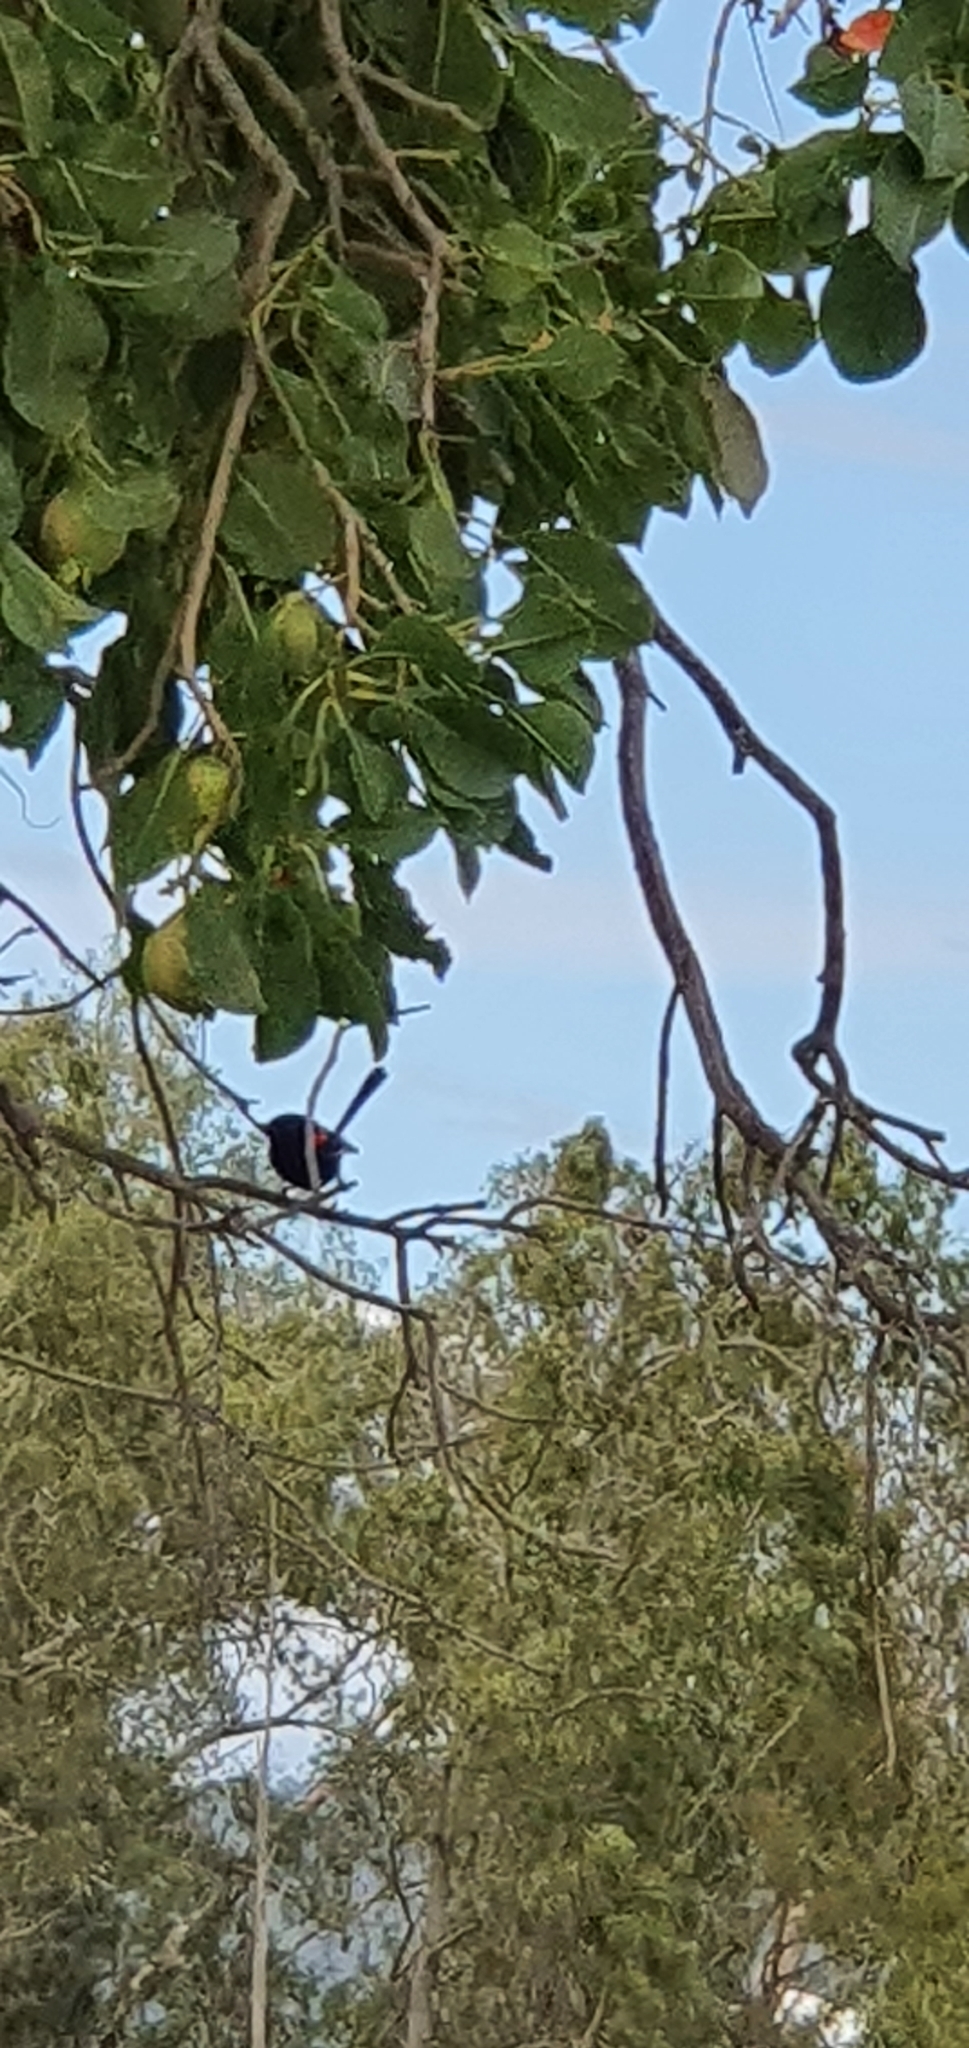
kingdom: Animalia
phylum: Chordata
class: Aves
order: Passeriformes
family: Maluridae
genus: Malurus
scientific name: Malurus melanocephalus
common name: Red-backed fairywren
